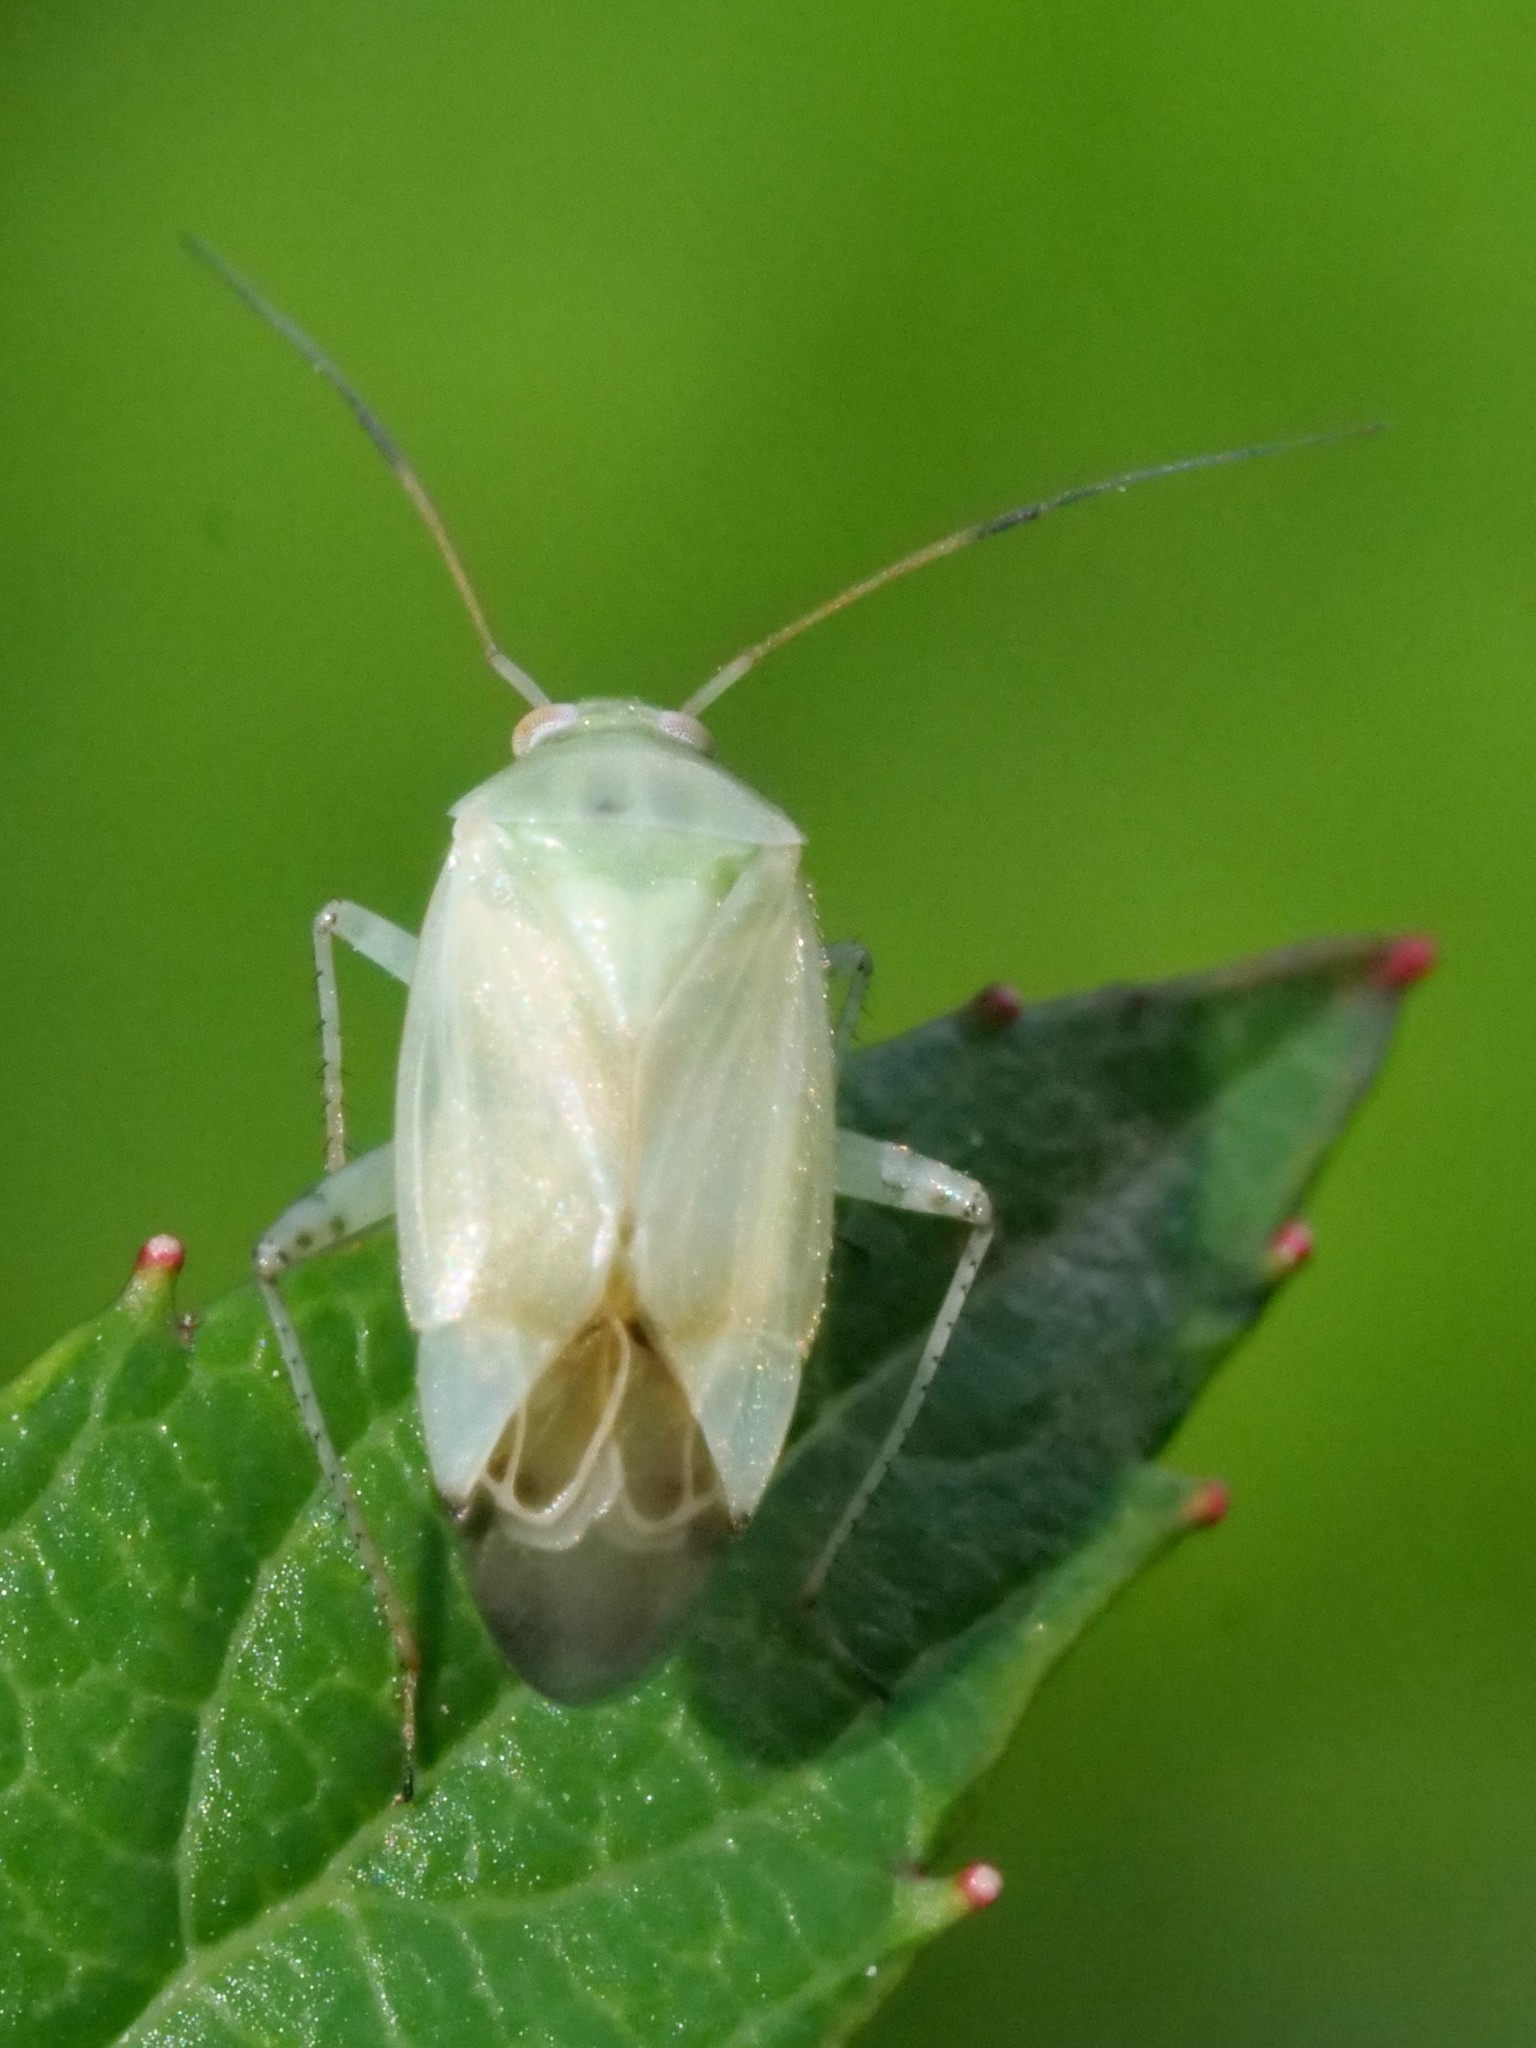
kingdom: Animalia
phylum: Arthropoda
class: Insecta
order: Hemiptera
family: Miridae
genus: Apolygus
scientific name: Apolygus spinolae
